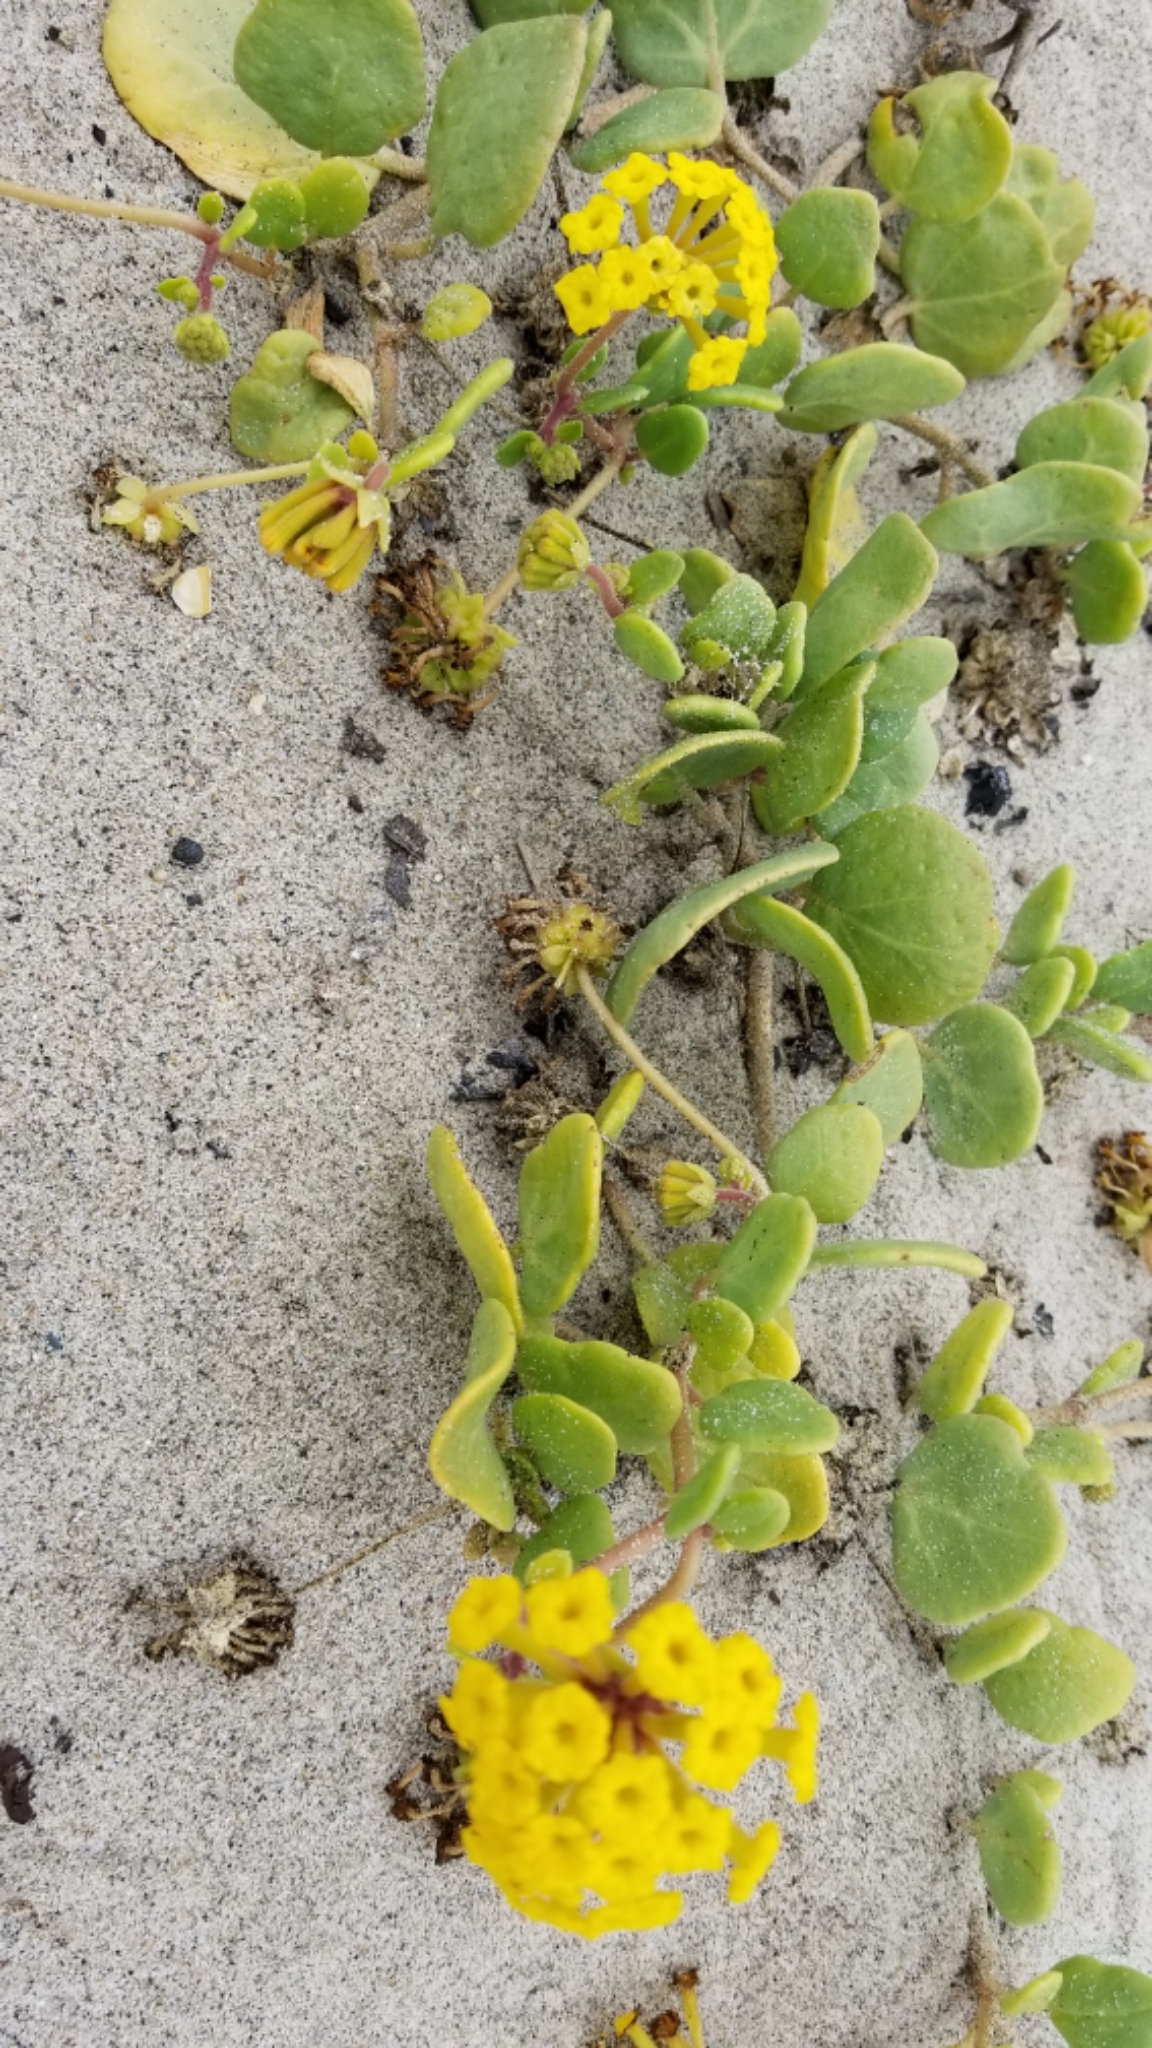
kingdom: Plantae
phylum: Tracheophyta
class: Magnoliopsida
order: Caryophyllales
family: Nyctaginaceae
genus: Abronia
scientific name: Abronia latifolia
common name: Yellow sand-verbena
